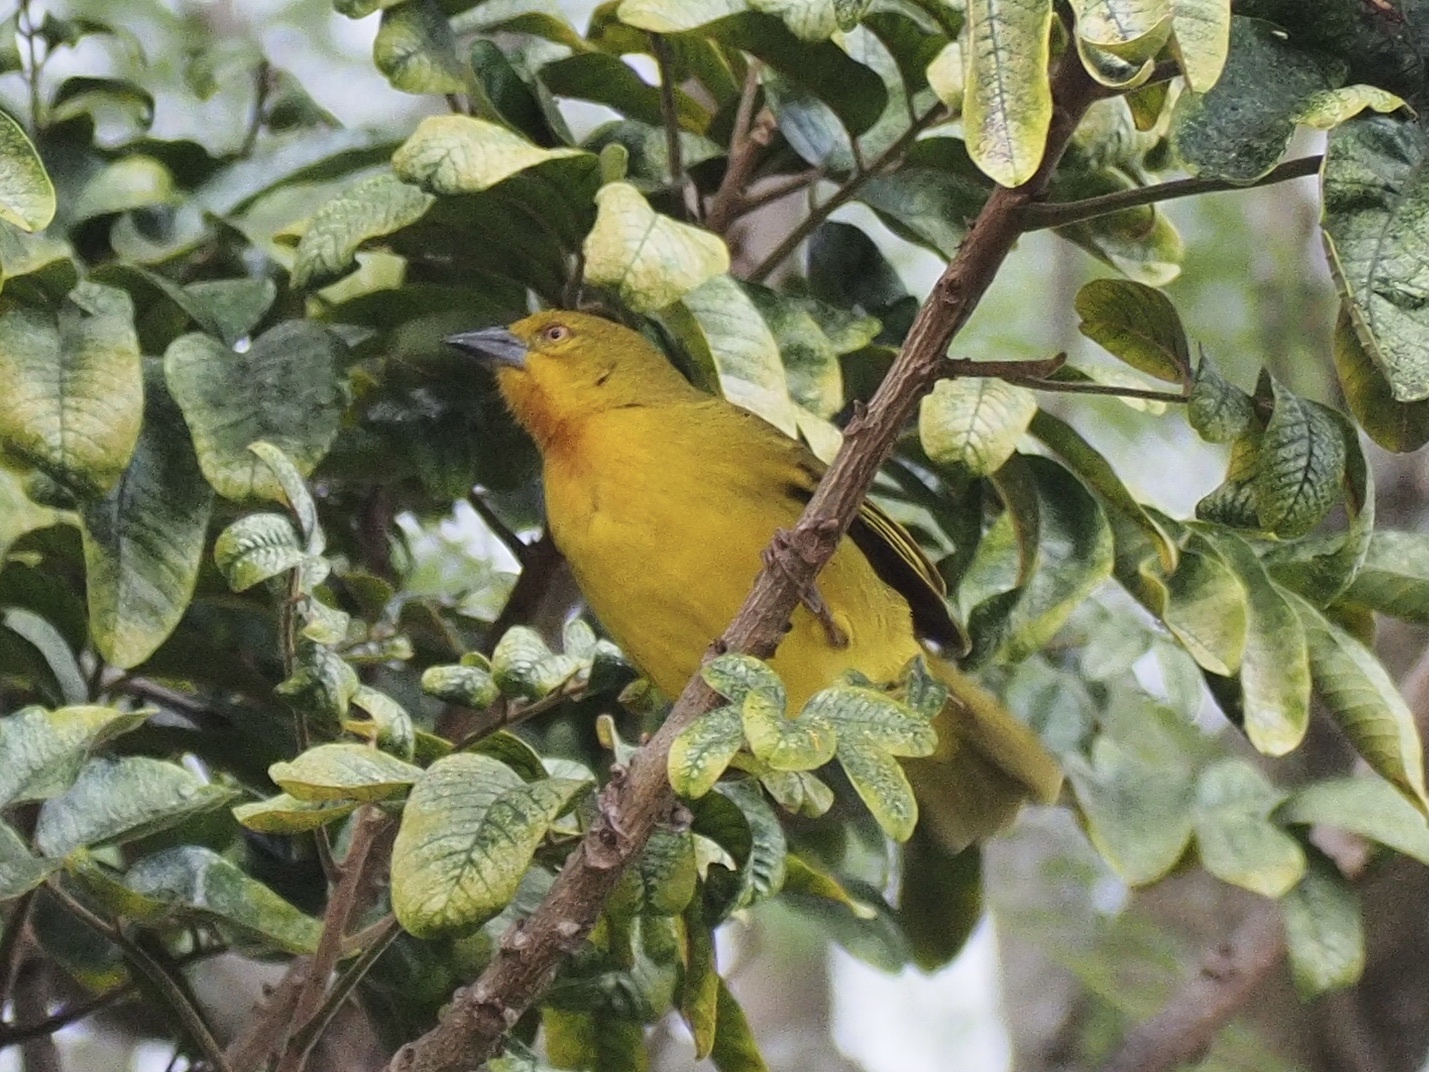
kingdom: Animalia
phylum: Chordata
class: Aves
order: Passeriformes
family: Ploceidae
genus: Ploceus
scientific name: Ploceus xanthops
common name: Holub's golden weaver
